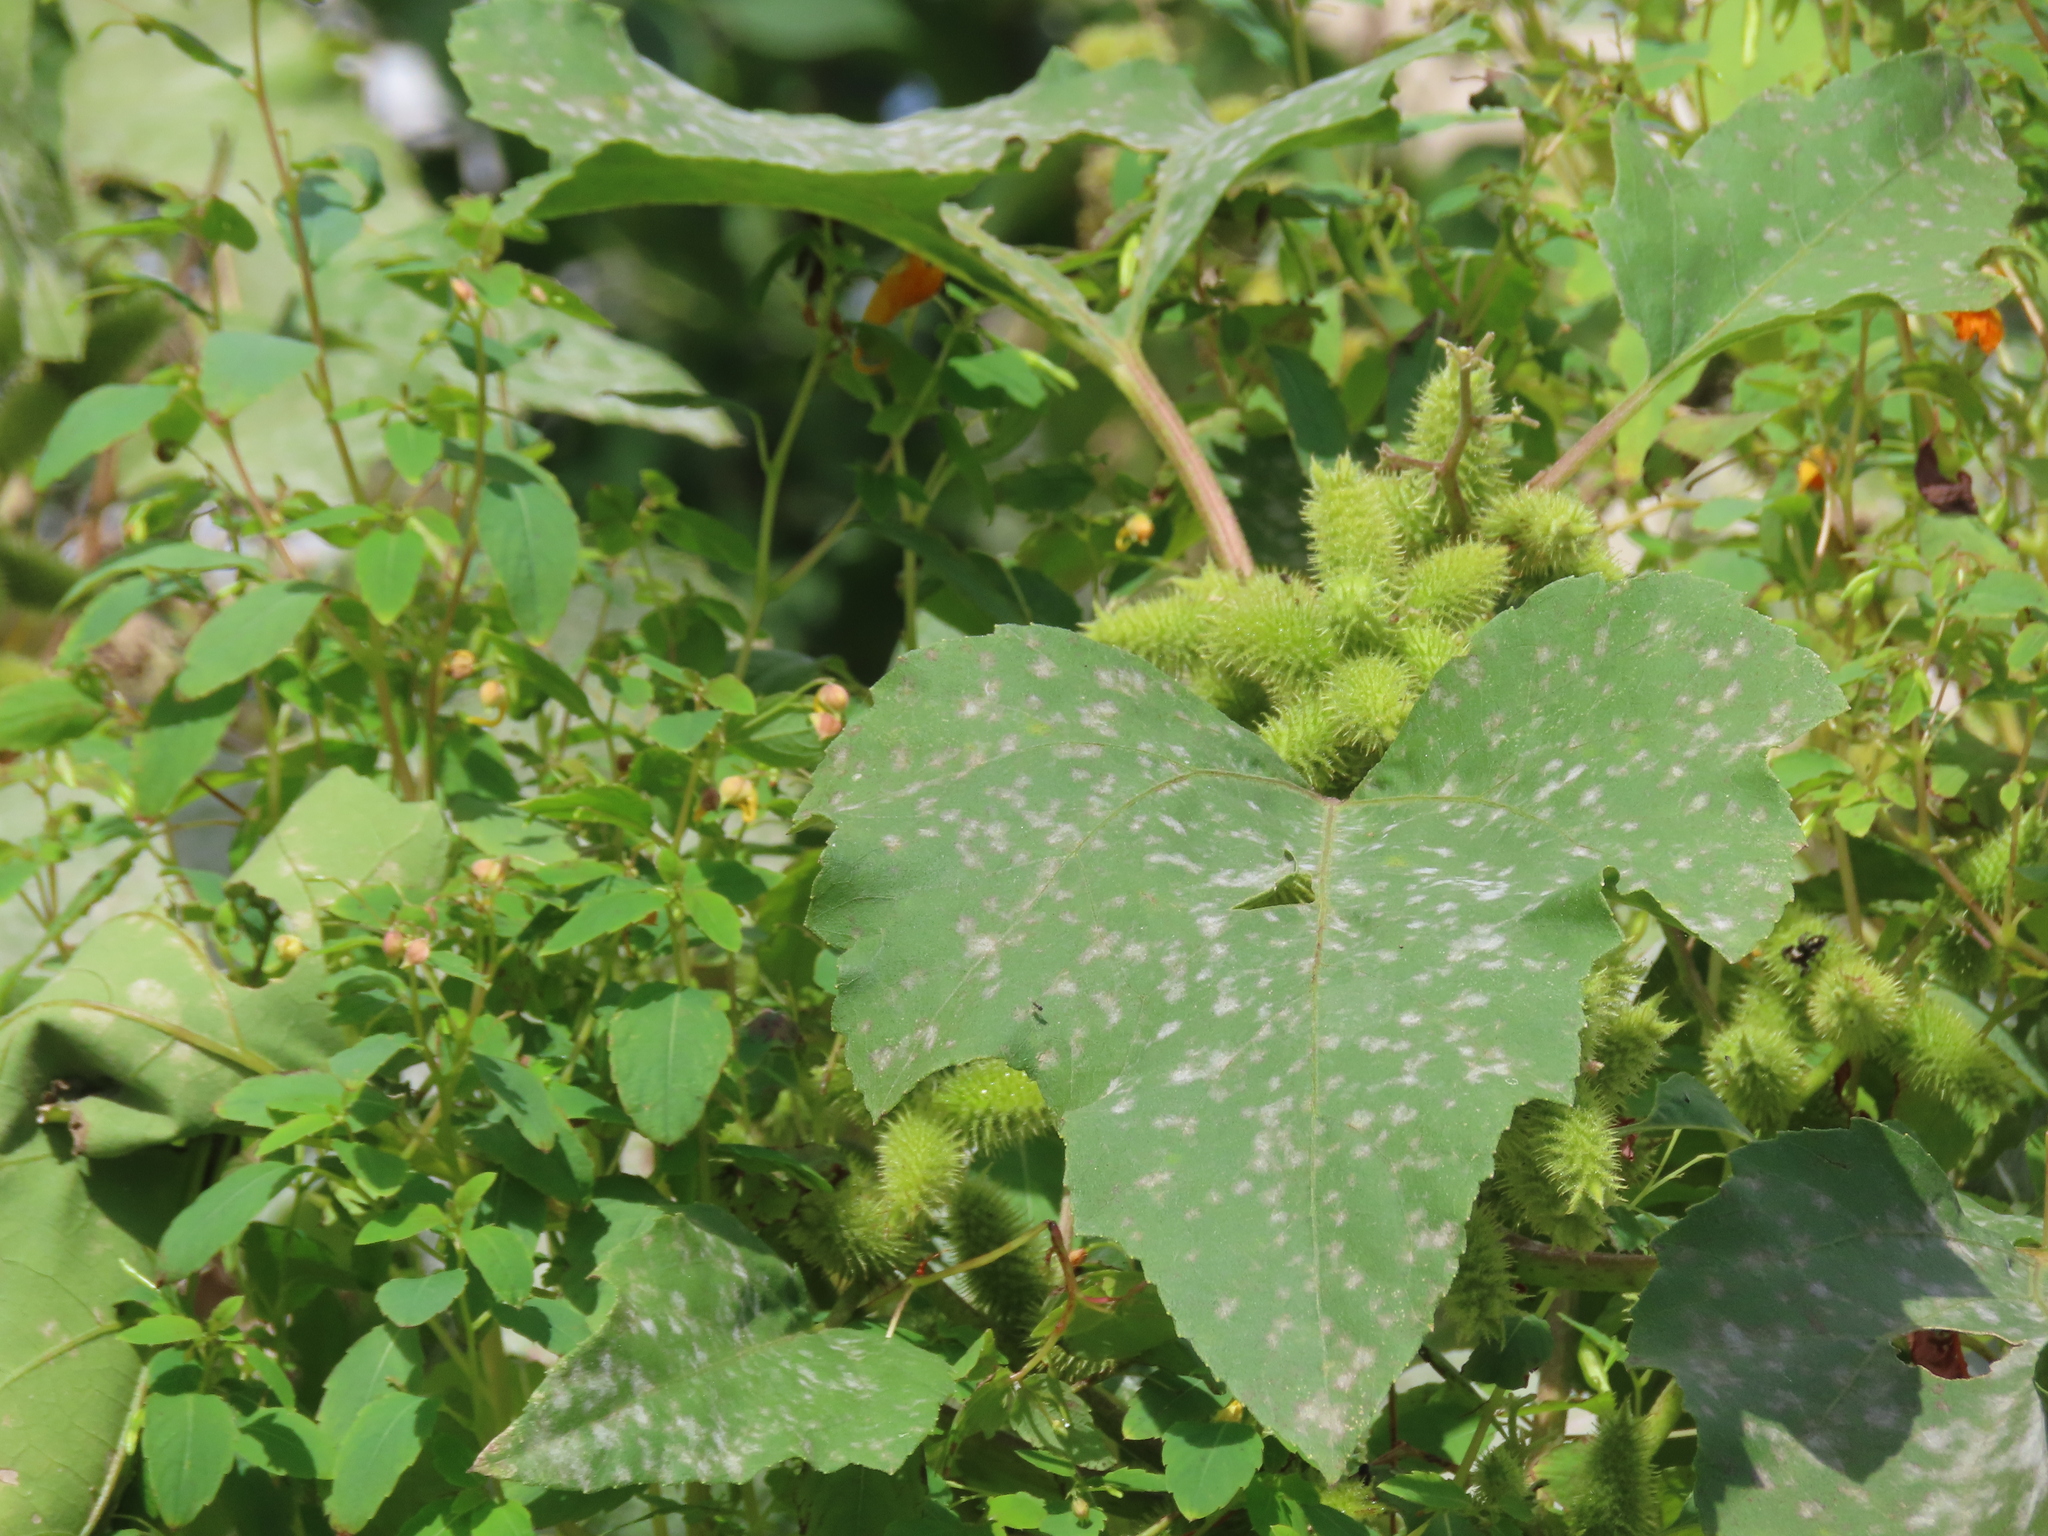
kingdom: Plantae
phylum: Tracheophyta
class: Magnoliopsida
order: Asterales
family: Asteraceae
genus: Xanthium
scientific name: Xanthium strumarium
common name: Rough cocklebur
